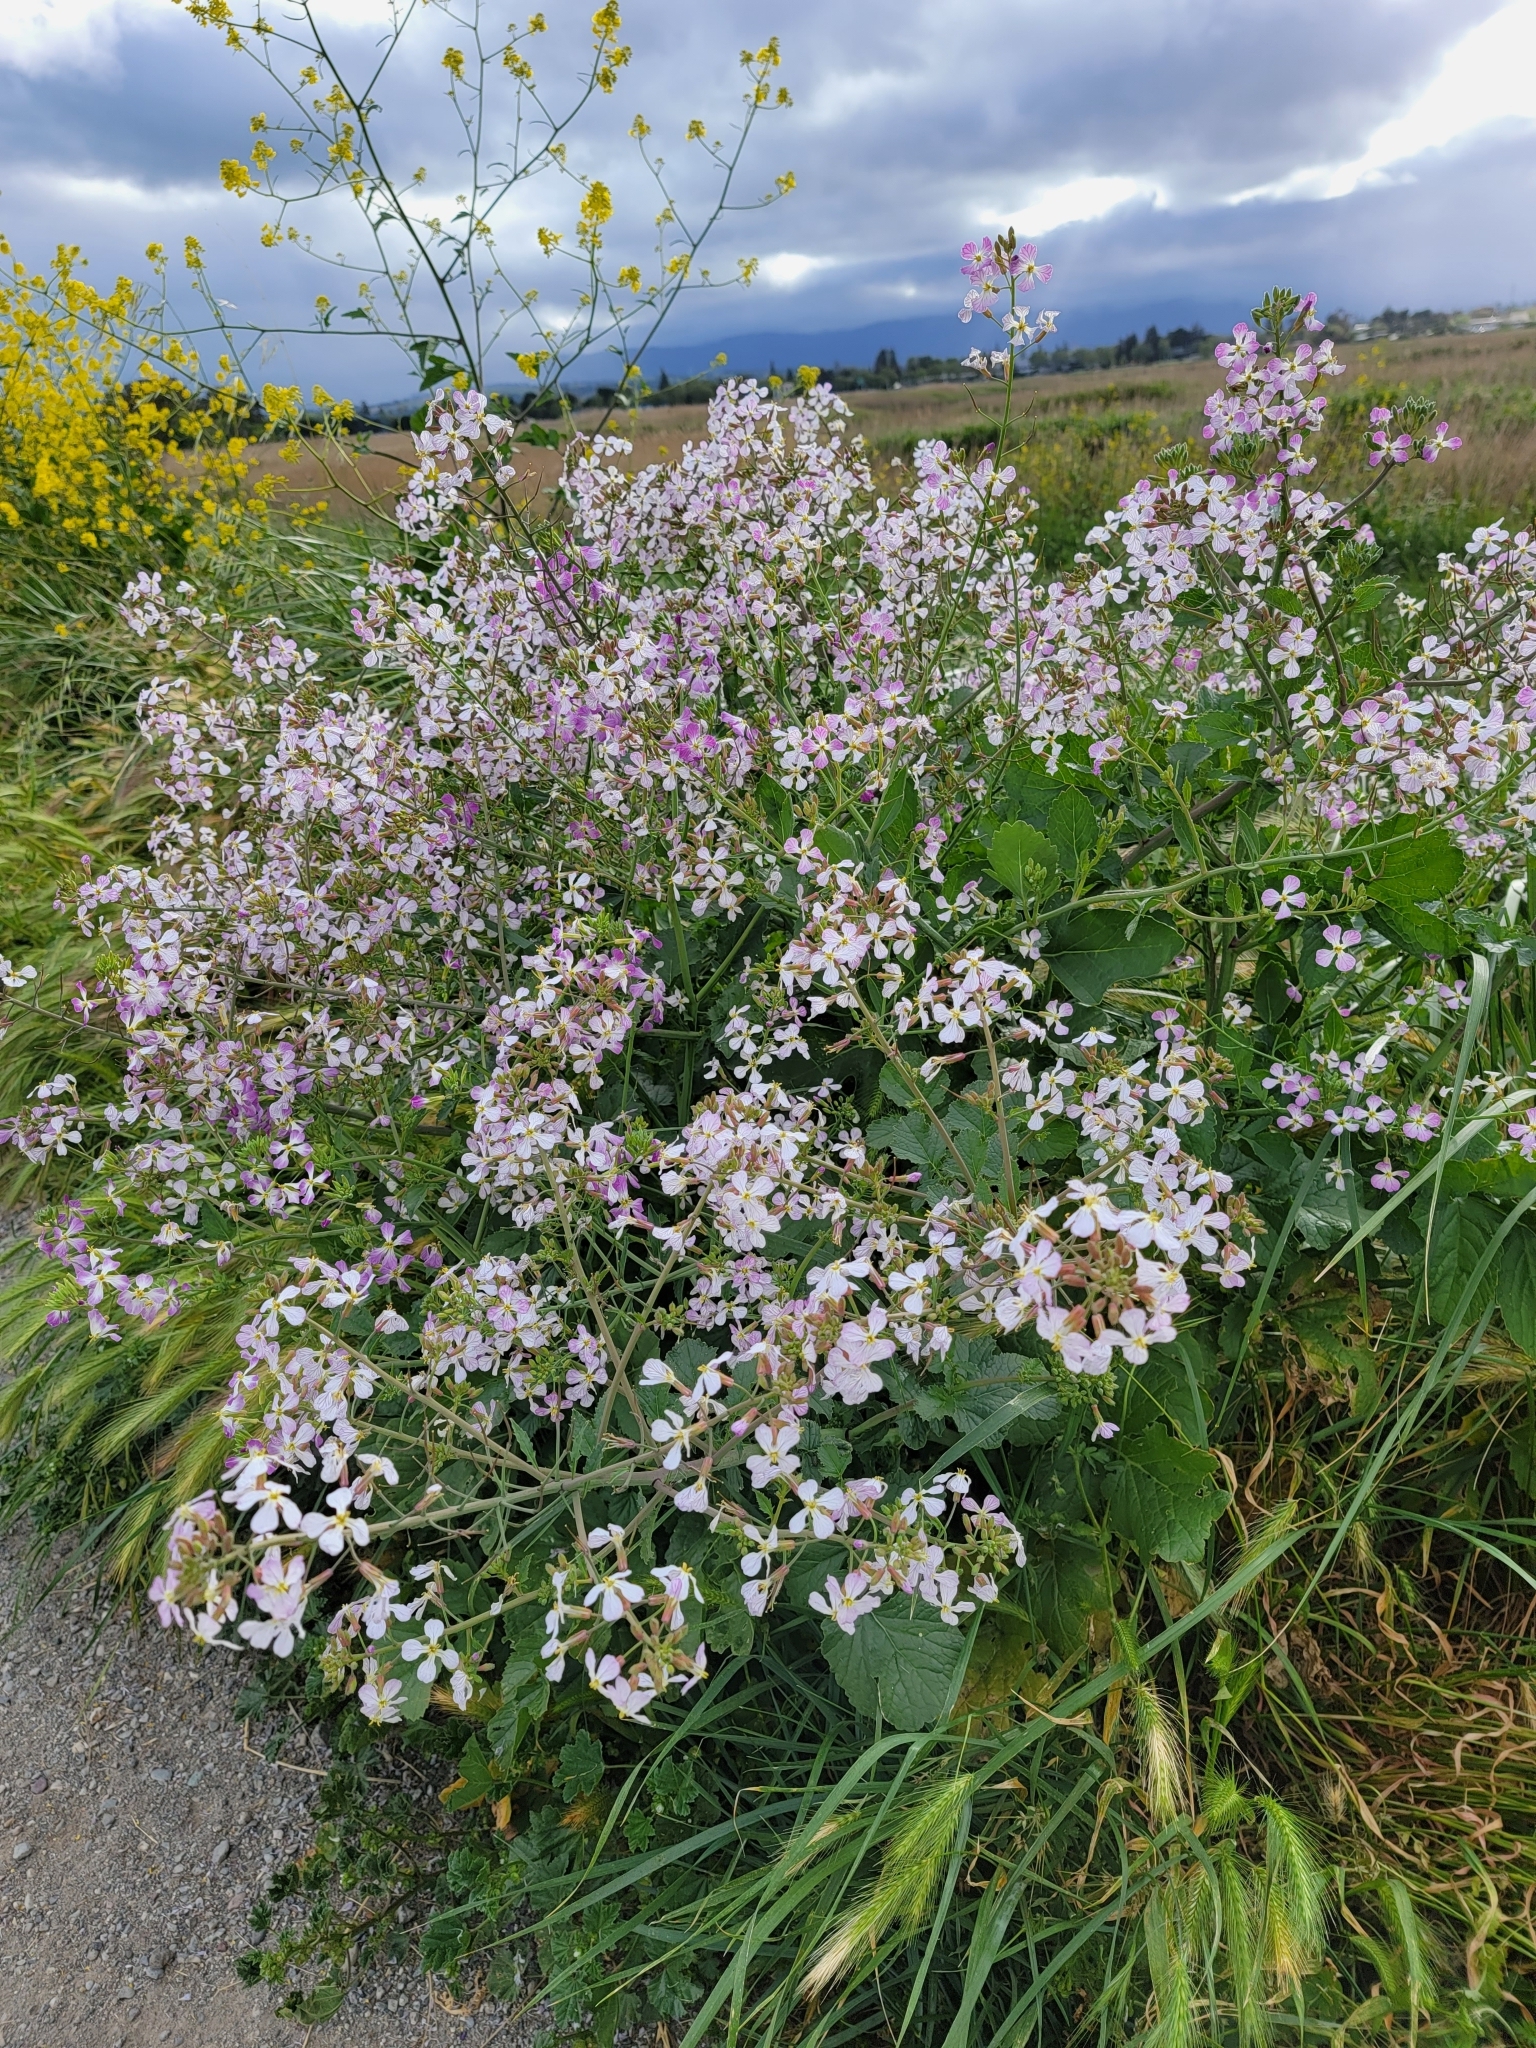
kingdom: Plantae
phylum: Tracheophyta
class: Magnoliopsida
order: Brassicales
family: Brassicaceae
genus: Raphanus
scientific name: Raphanus sativus
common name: Cultivated radish
